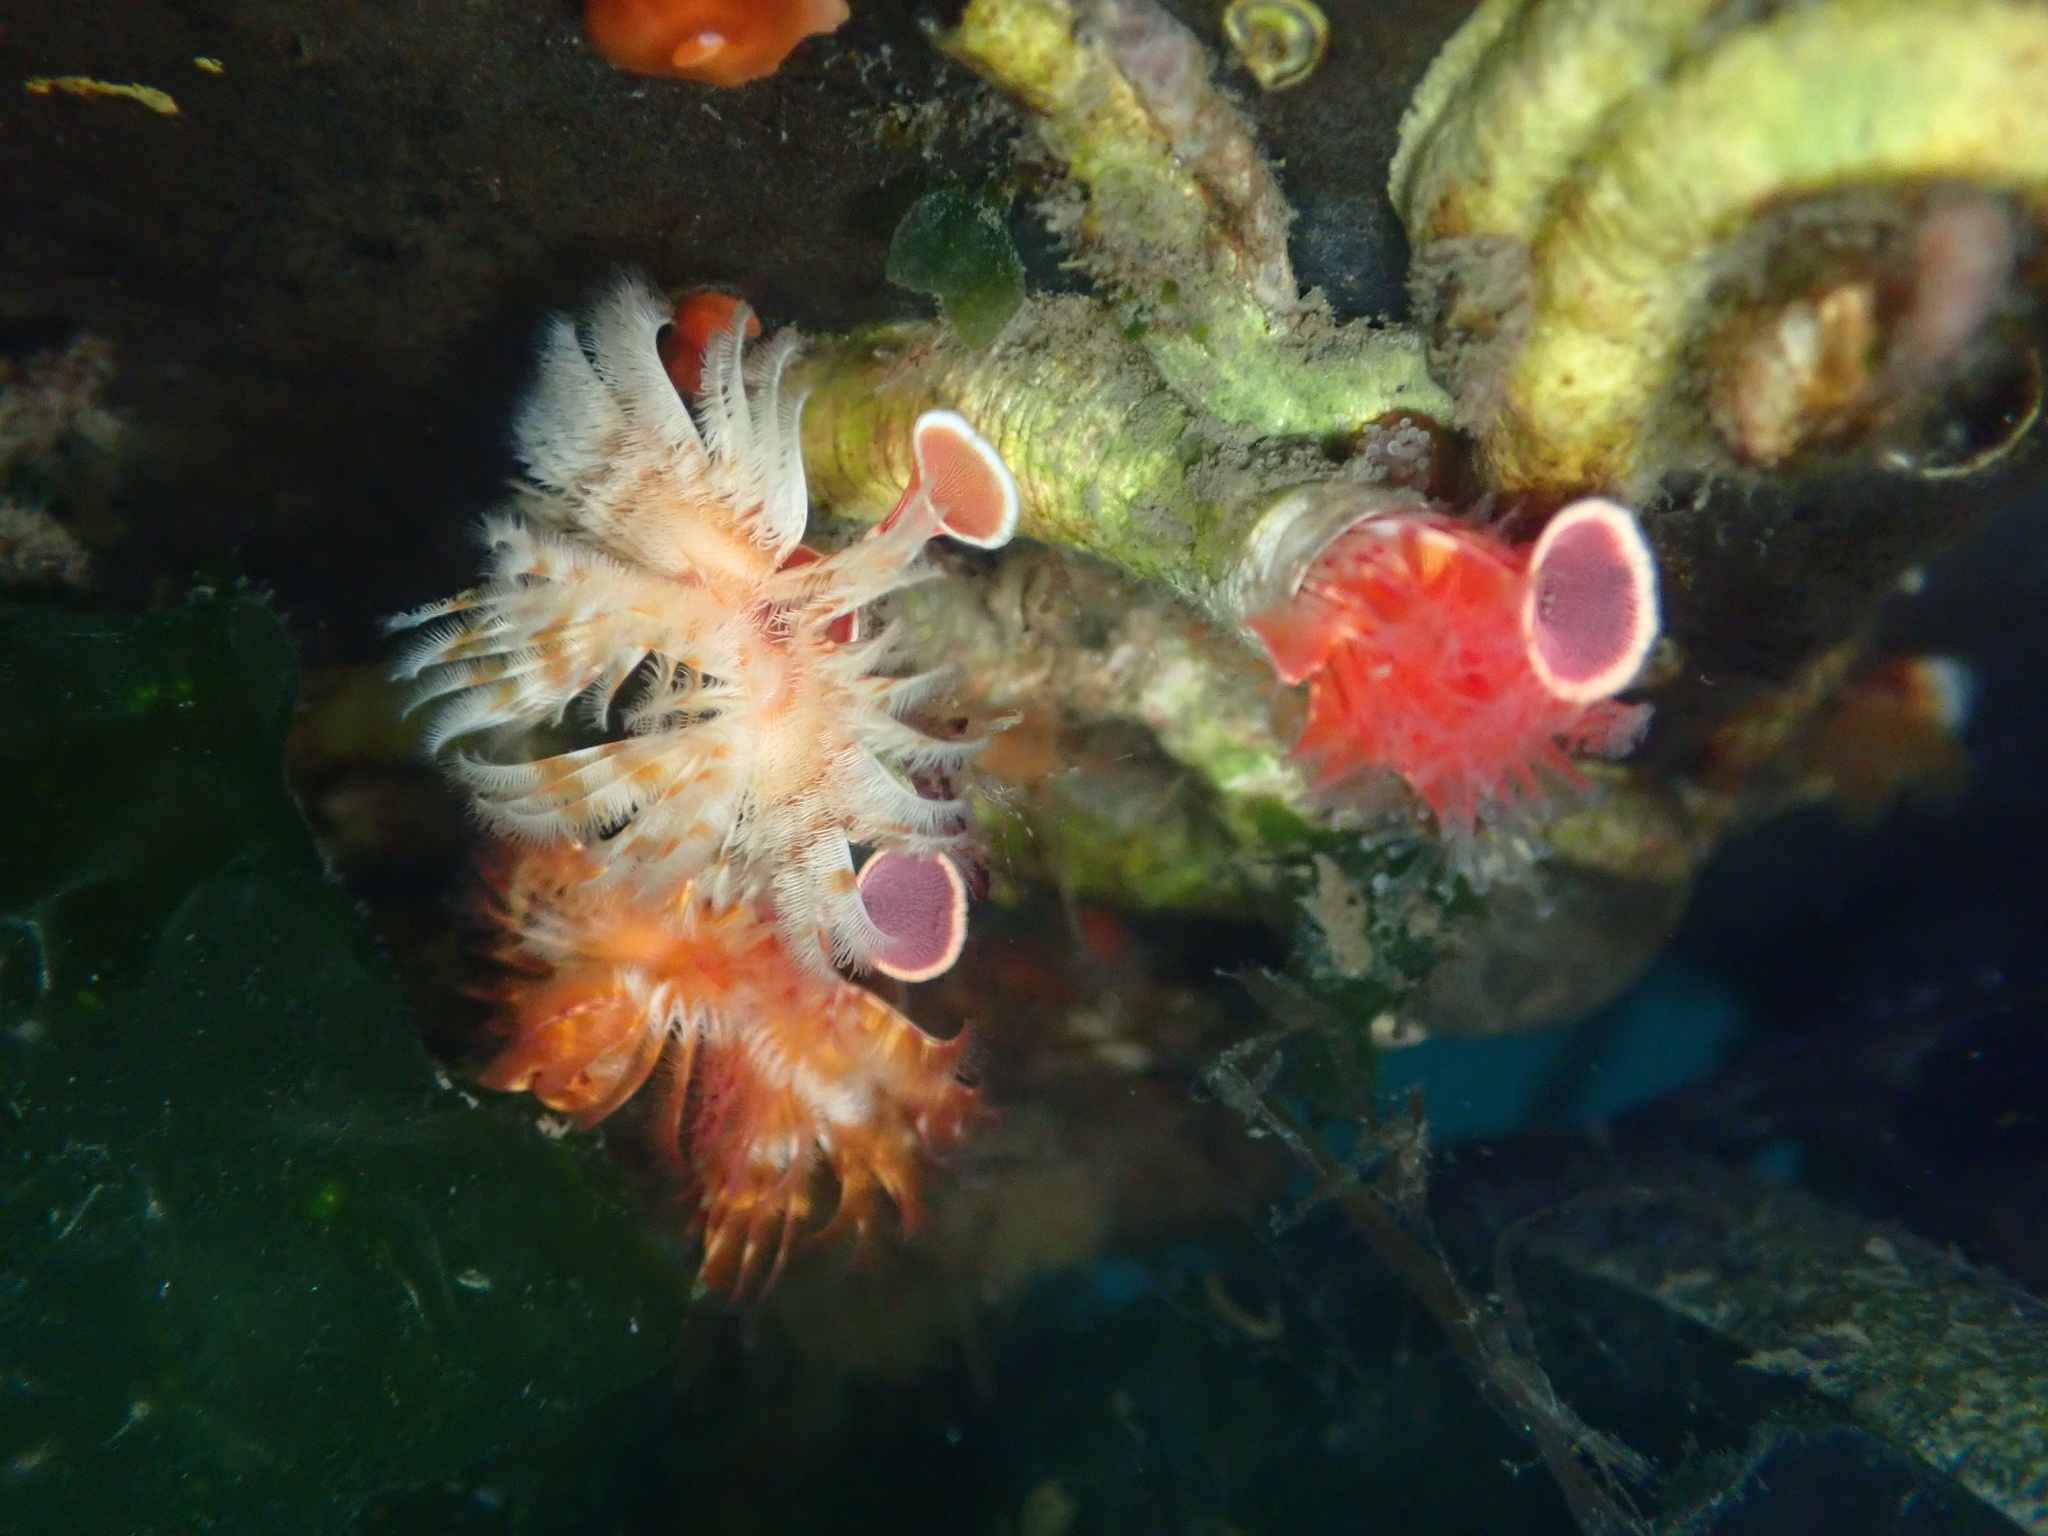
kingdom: Animalia
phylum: Annelida
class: Polychaeta
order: Sabellida
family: Serpulidae
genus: Serpula
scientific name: Serpula columbiana
